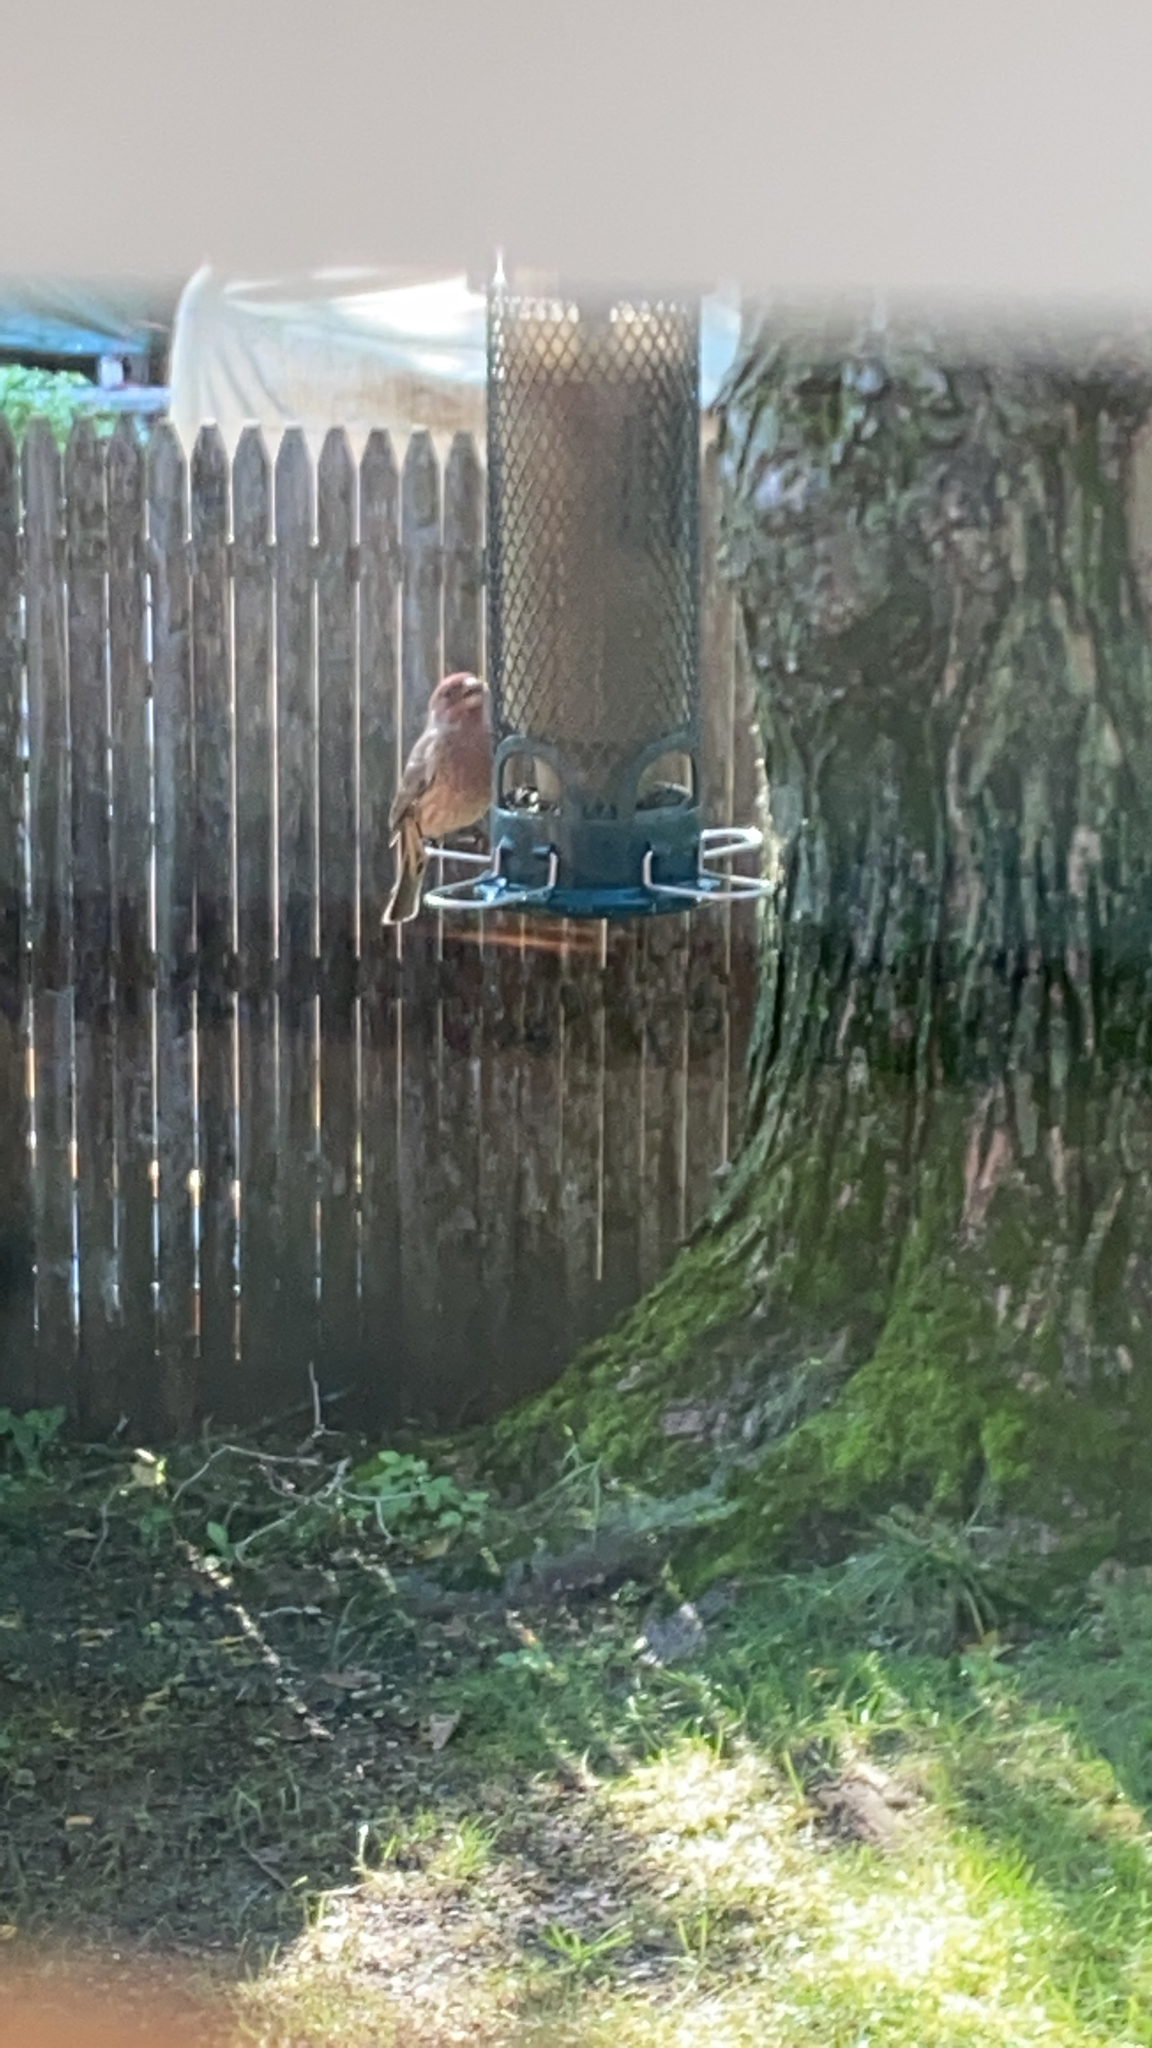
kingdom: Animalia
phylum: Chordata
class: Aves
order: Passeriformes
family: Fringillidae
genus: Haemorhous
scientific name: Haemorhous mexicanus
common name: House finch
